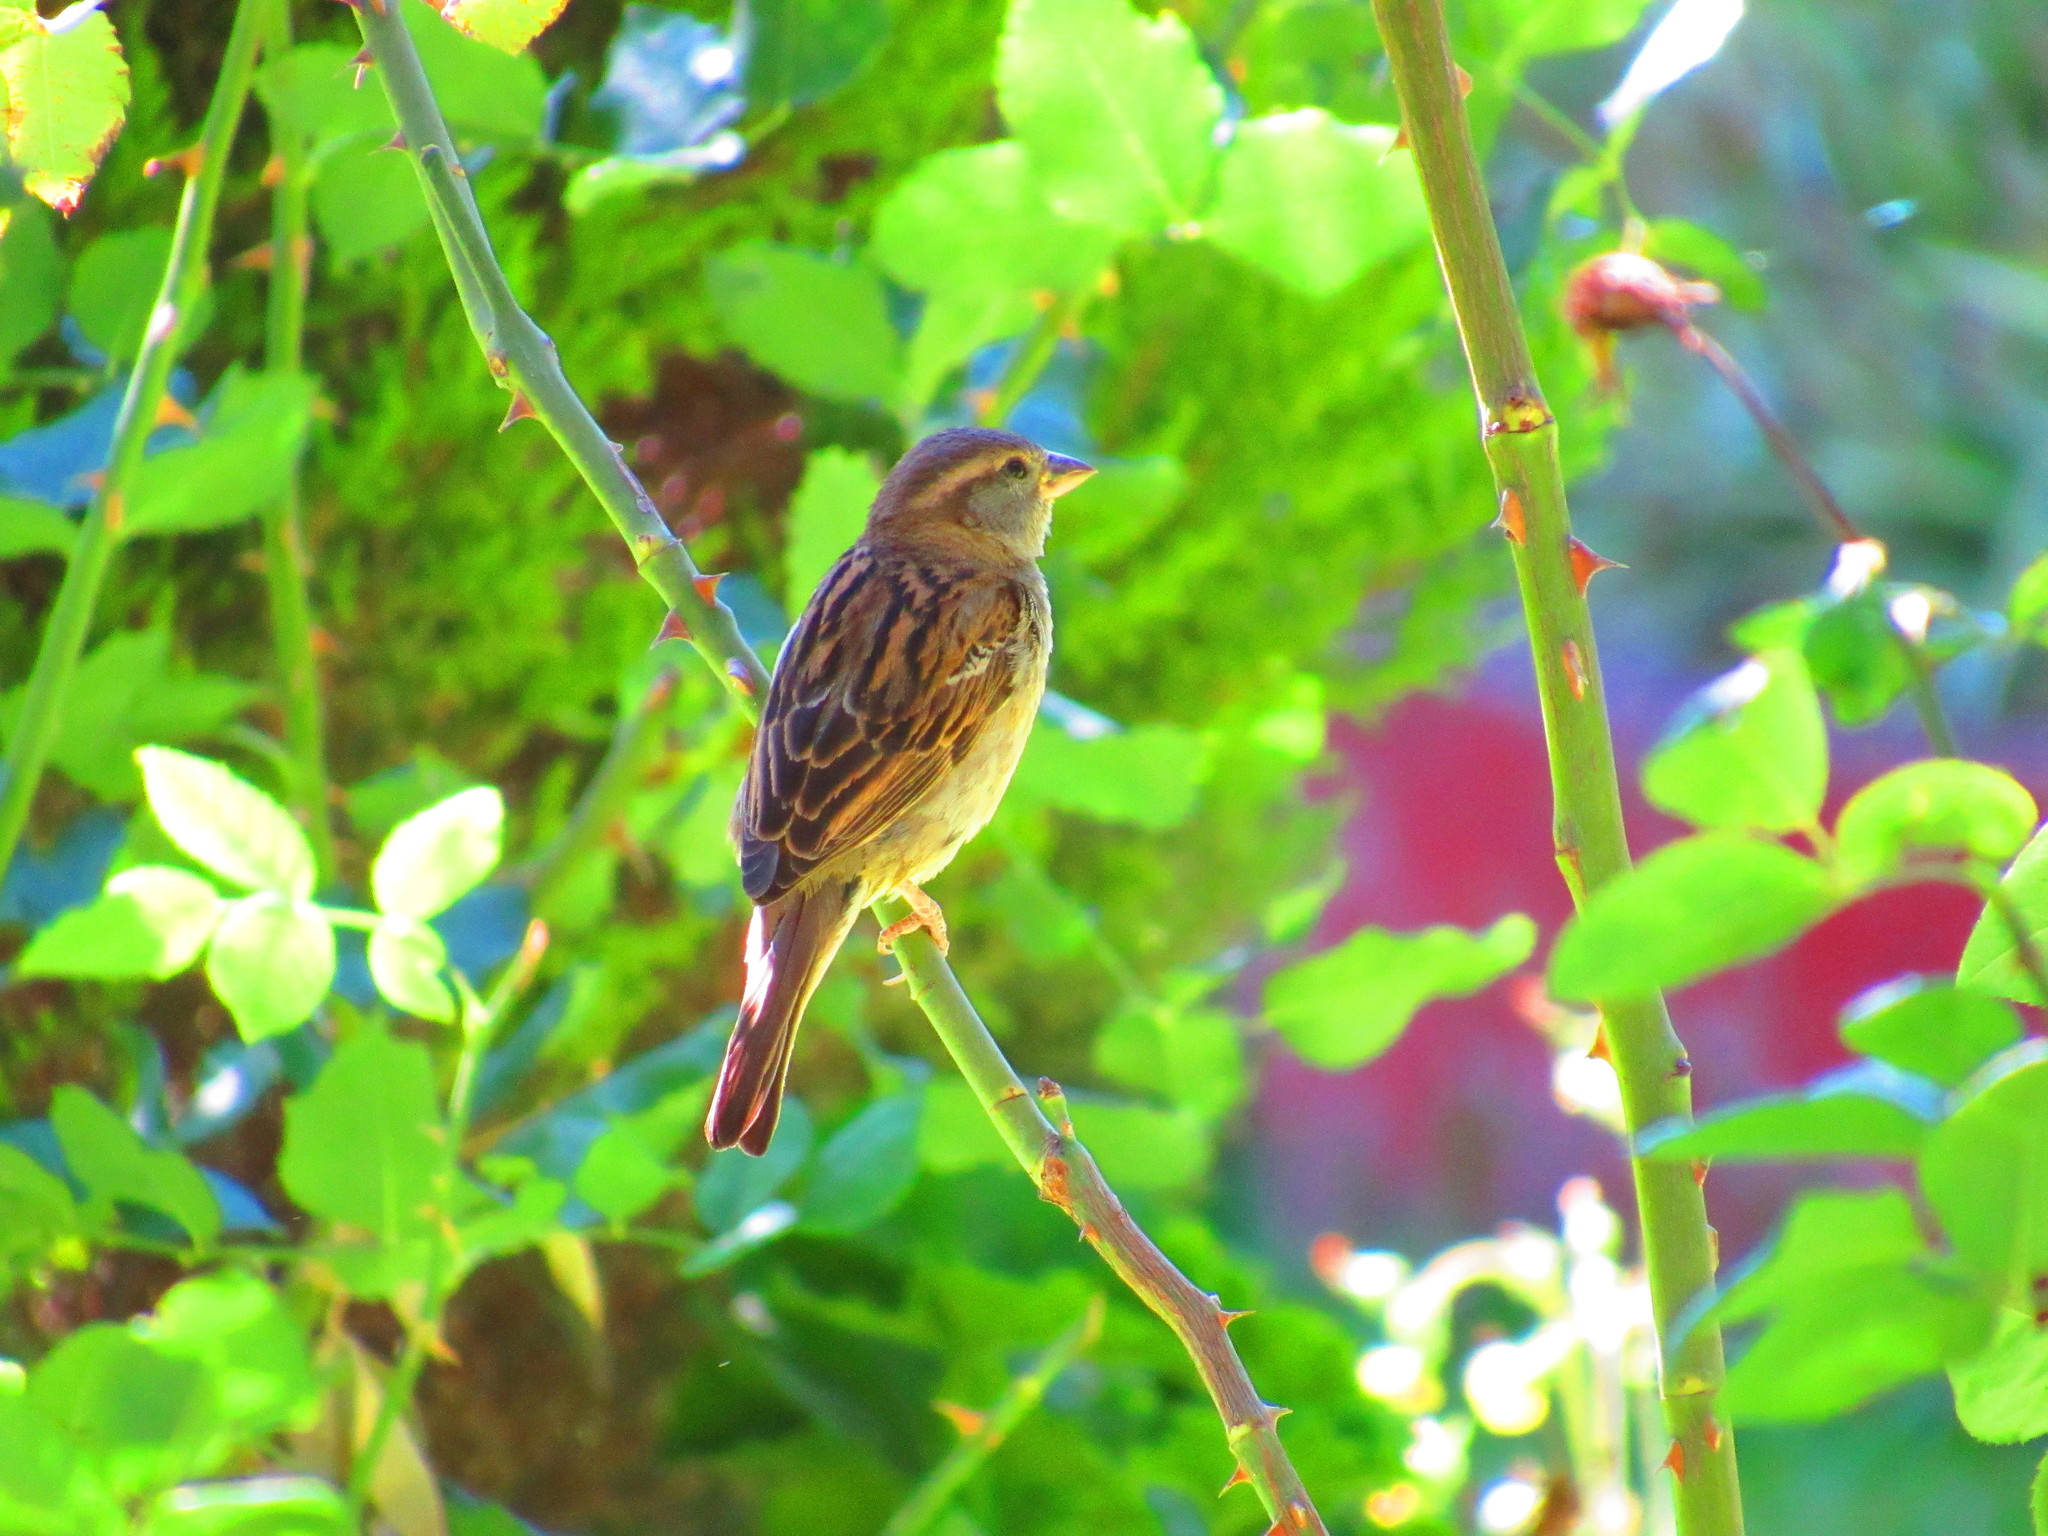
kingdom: Animalia
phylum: Chordata
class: Aves
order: Passeriformes
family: Passeridae
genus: Passer
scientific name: Passer domesticus
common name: House sparrow
